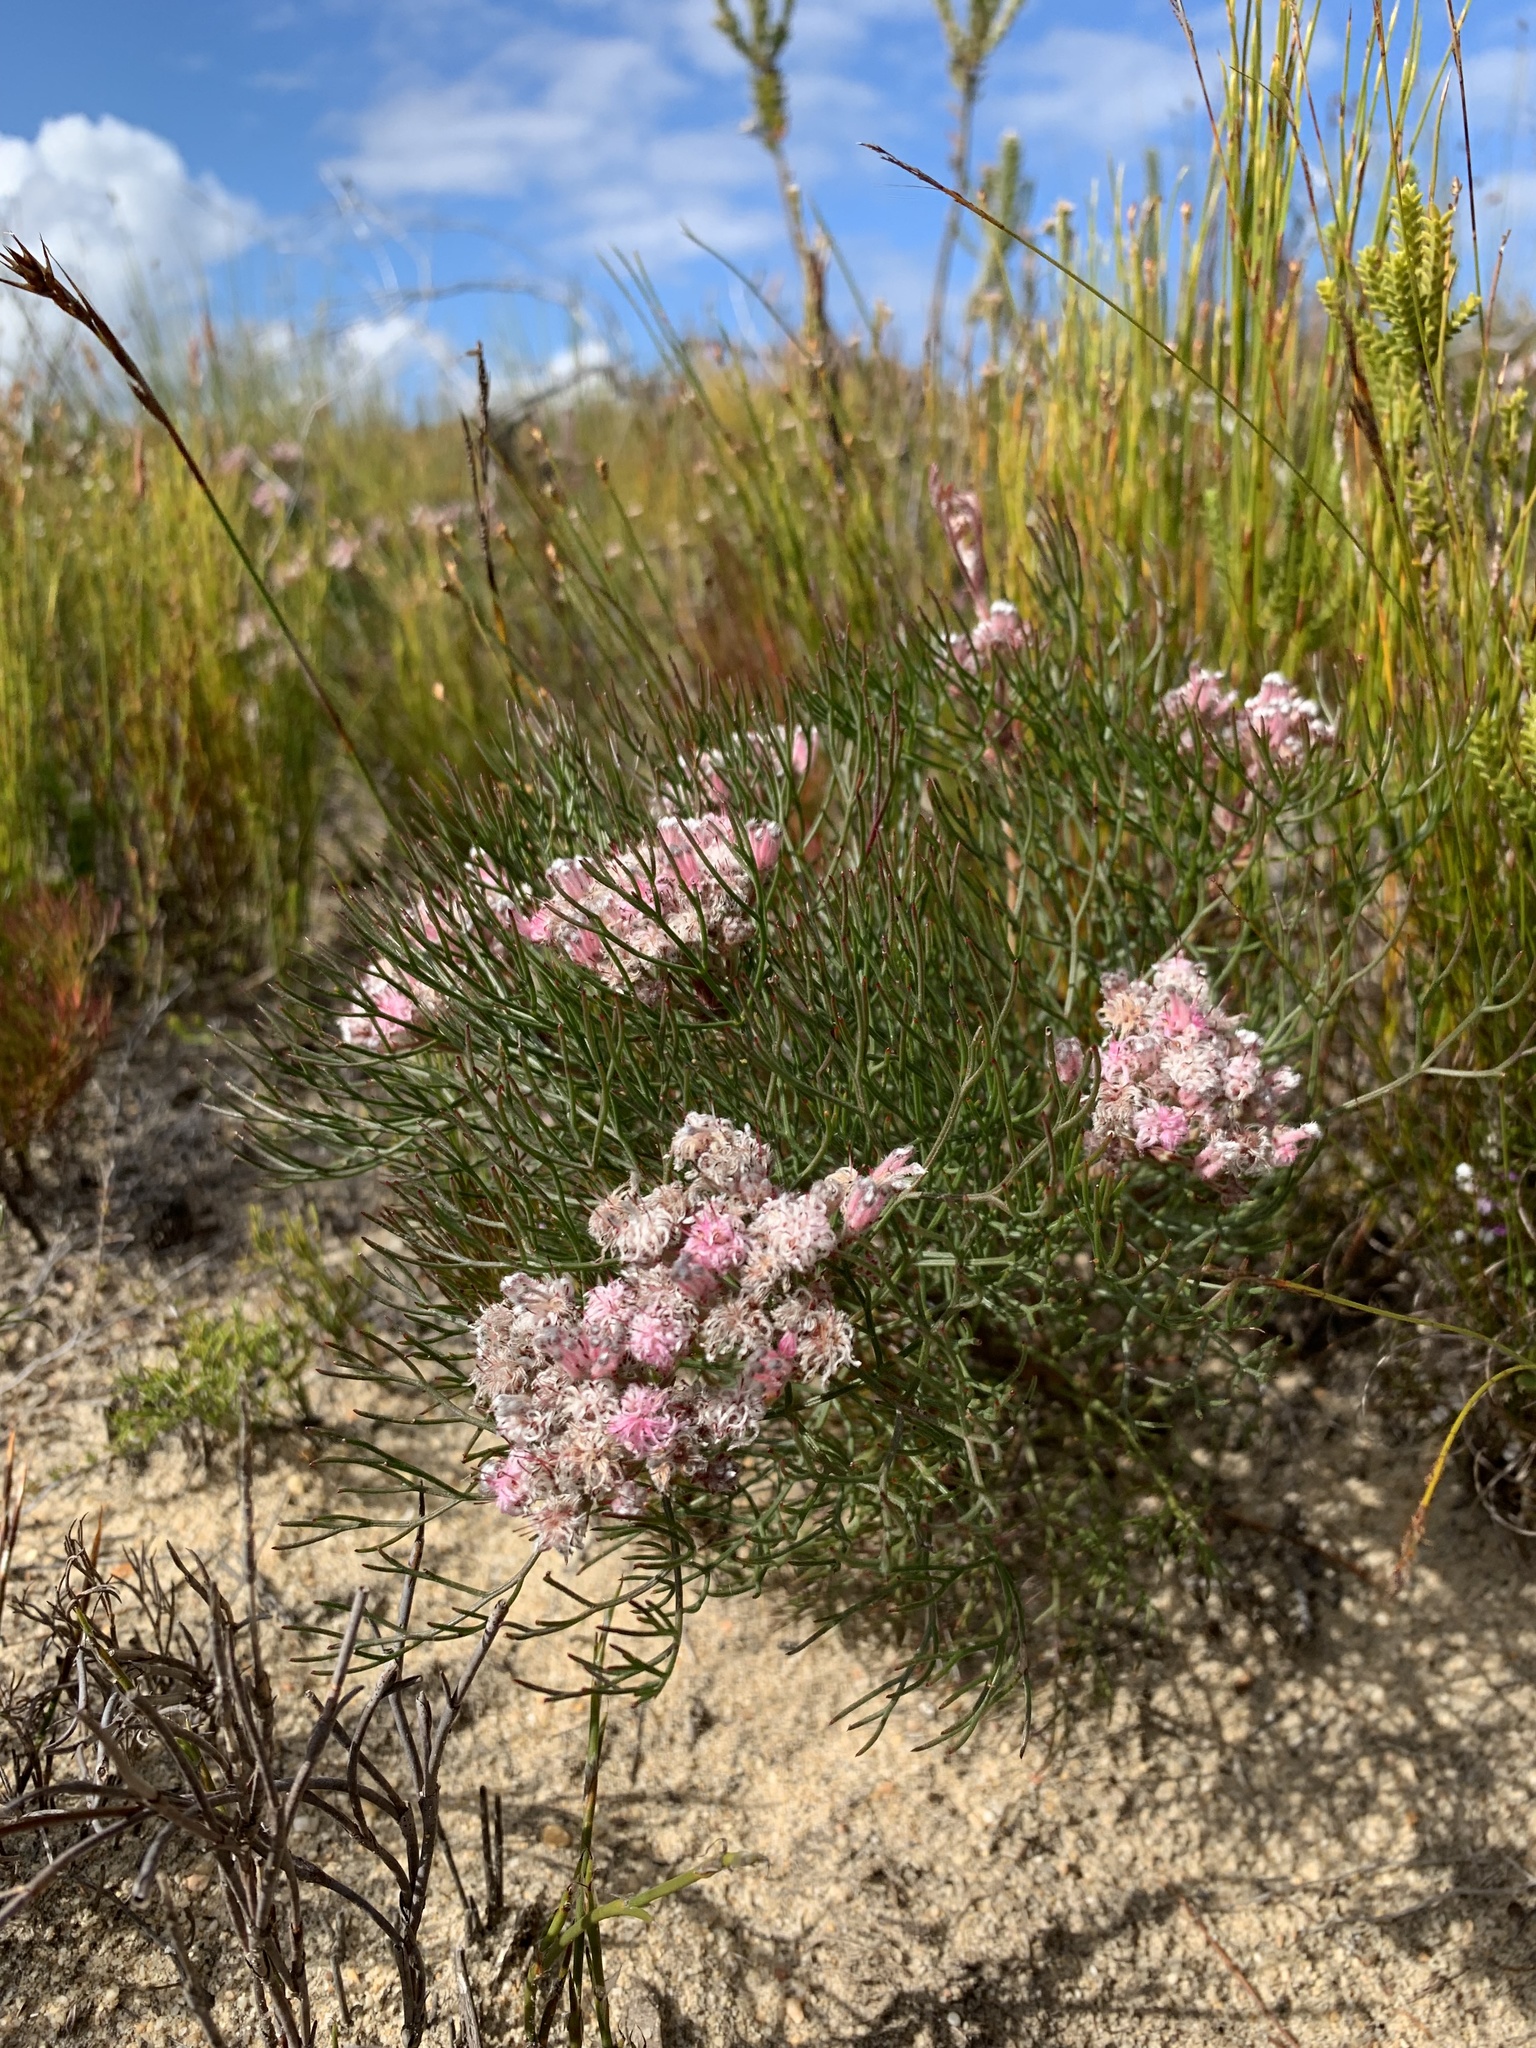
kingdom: Plantae
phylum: Tracheophyta
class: Magnoliopsida
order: Proteales
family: Proteaceae
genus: Serruria
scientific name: Serruria fasciflora
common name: Common pin spiderhead
